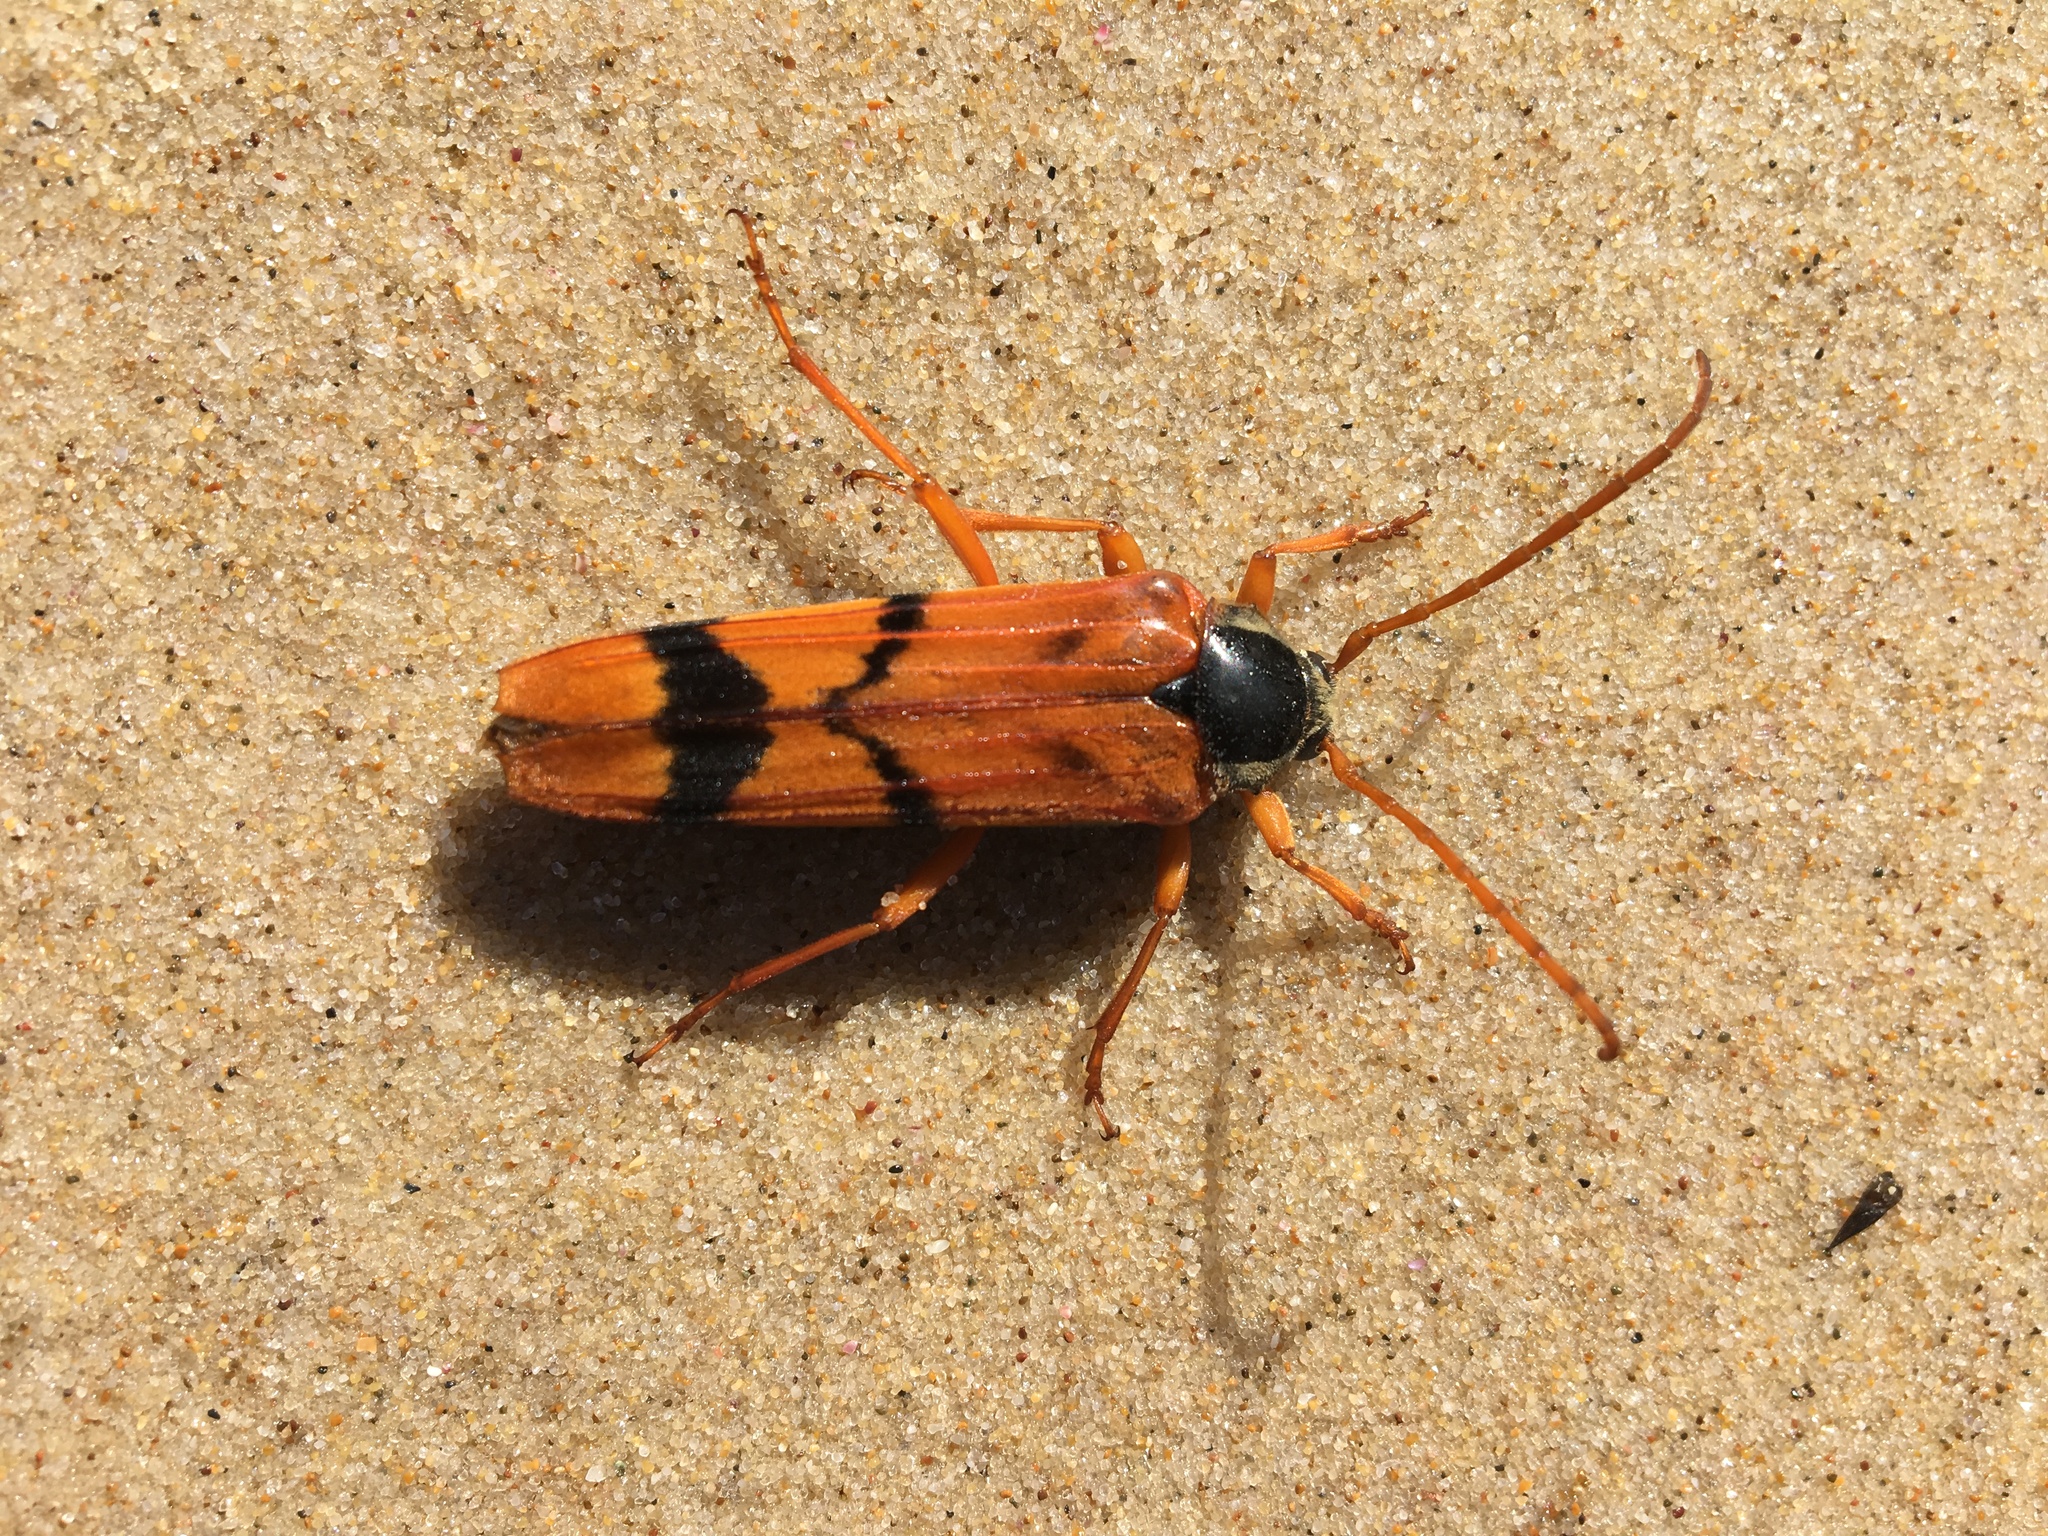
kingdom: Animalia
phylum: Arthropoda
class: Insecta
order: Coleoptera
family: Cerambycidae
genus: Tragocerus
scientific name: Tragocerus spencii
